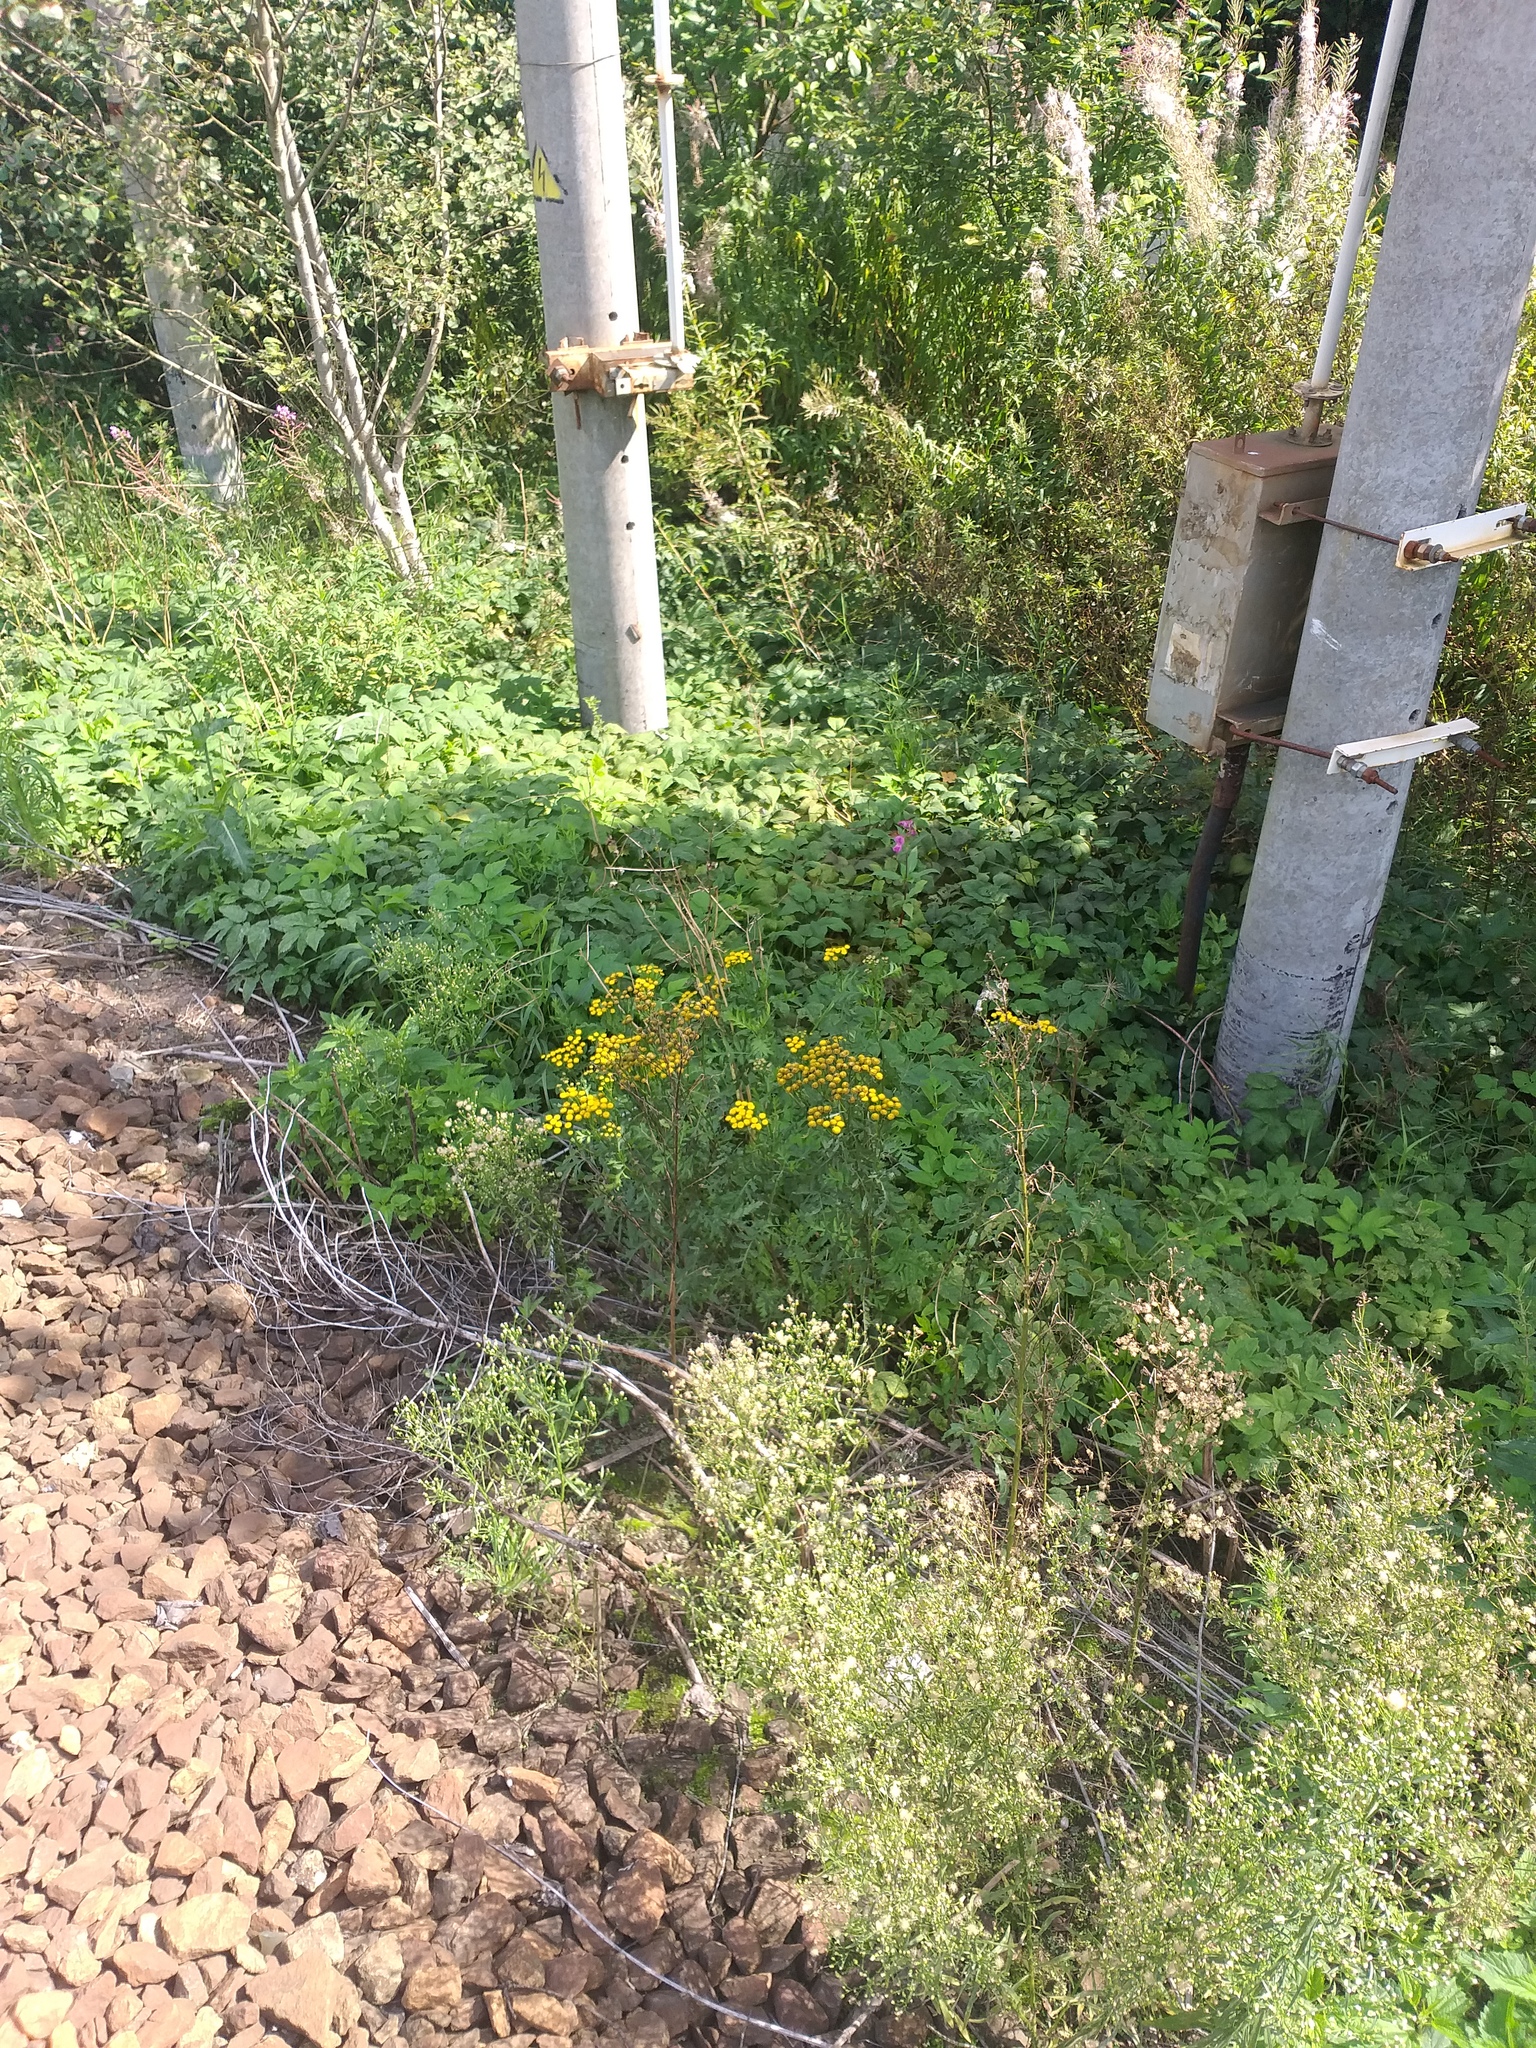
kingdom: Plantae
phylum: Tracheophyta
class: Magnoliopsida
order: Asterales
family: Asteraceae
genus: Tanacetum
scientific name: Tanacetum vulgare
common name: Common tansy
